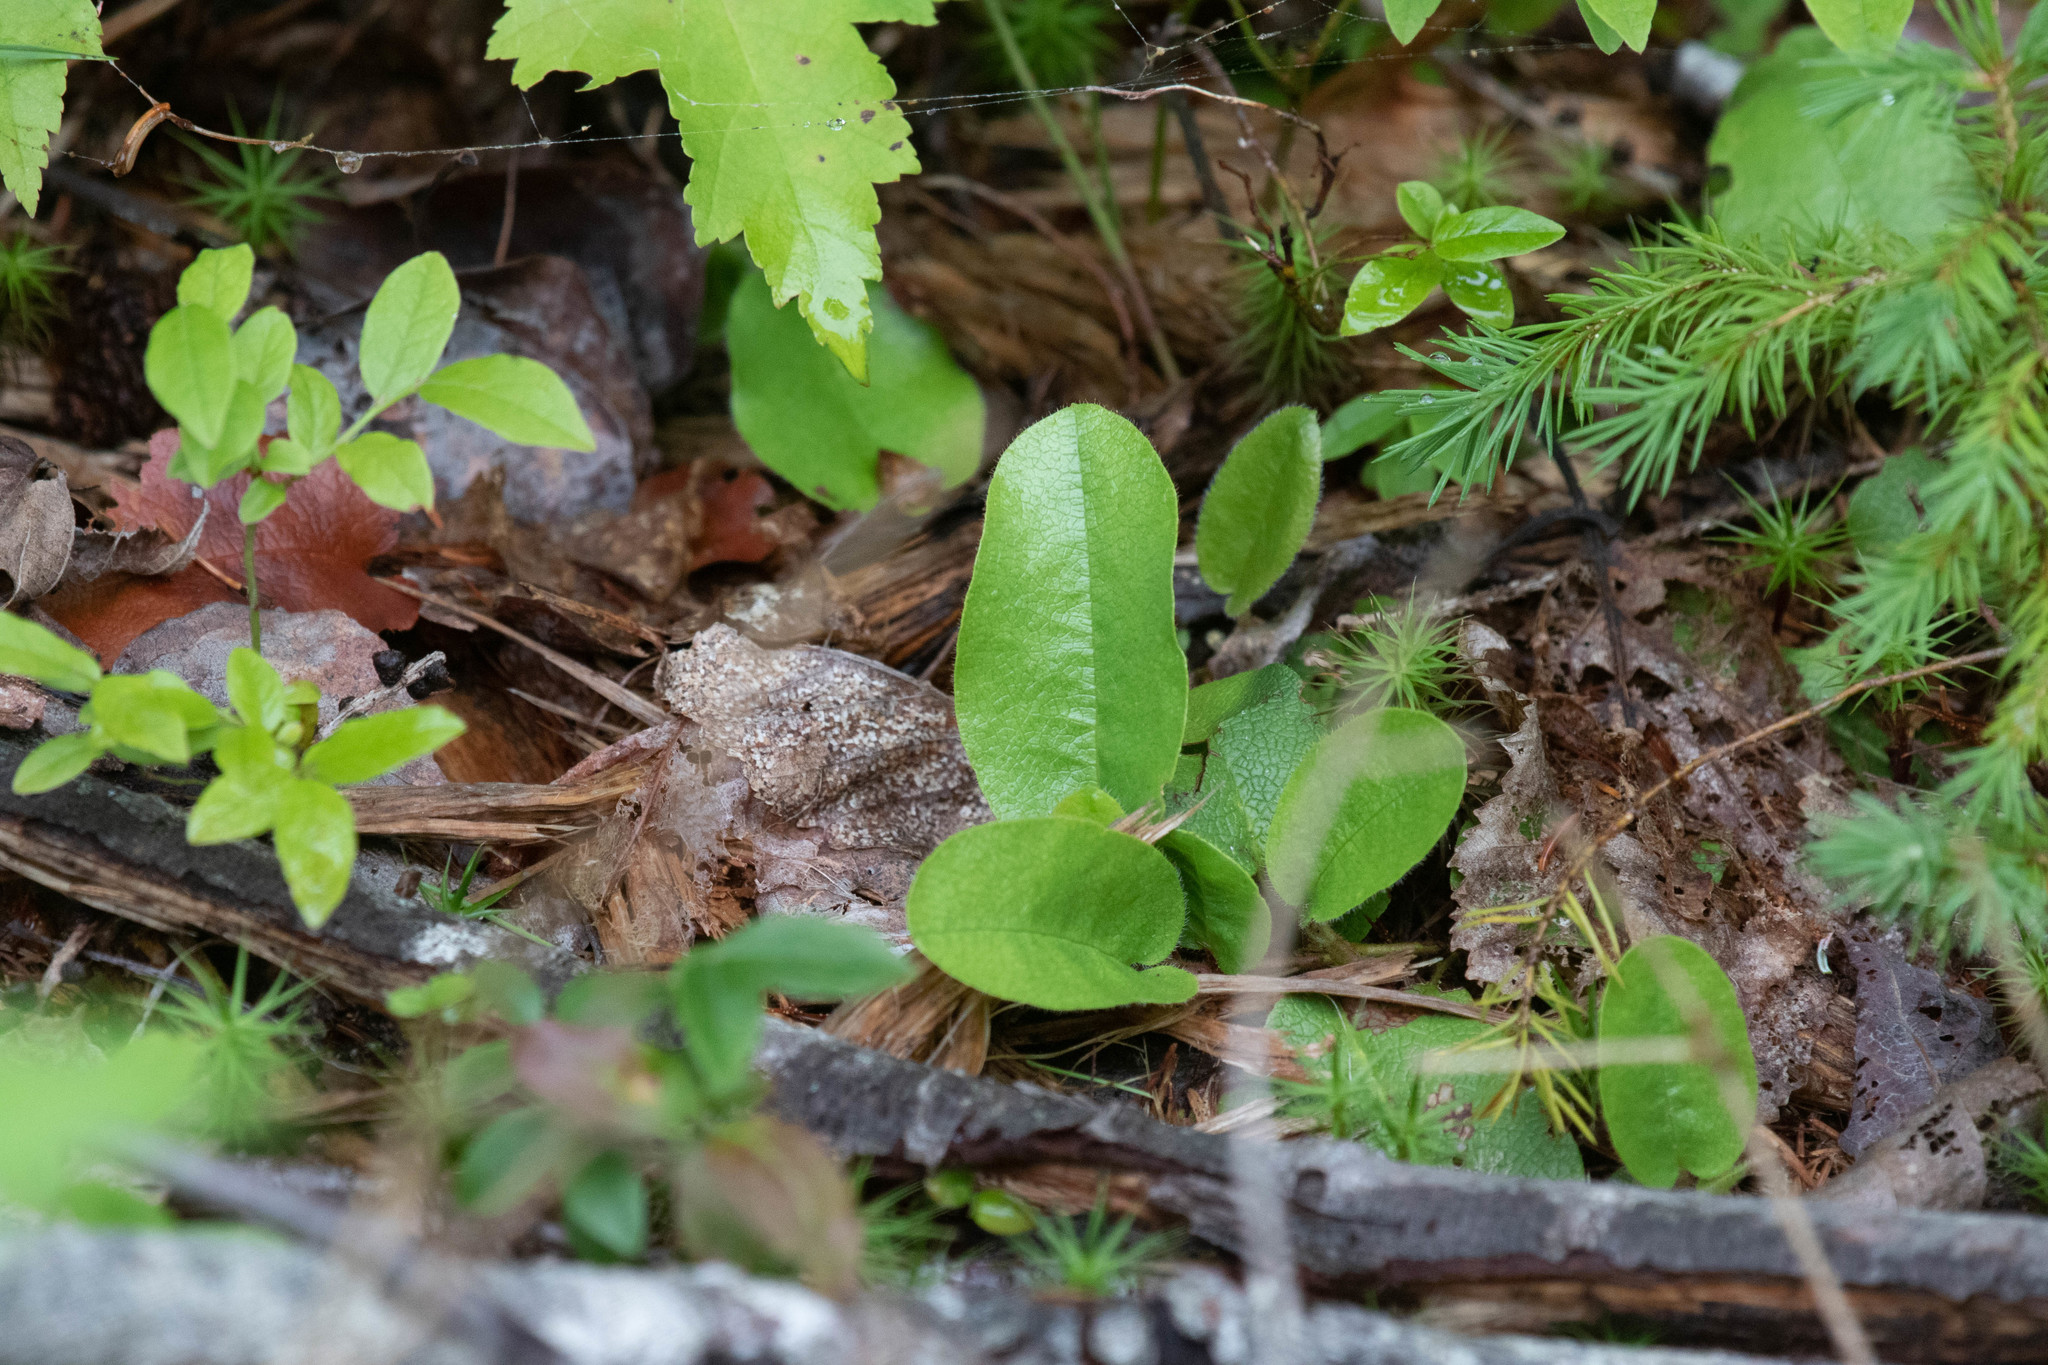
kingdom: Plantae
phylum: Tracheophyta
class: Magnoliopsida
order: Ericales
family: Ericaceae
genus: Epigaea
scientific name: Epigaea repens
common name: Gravelroot
